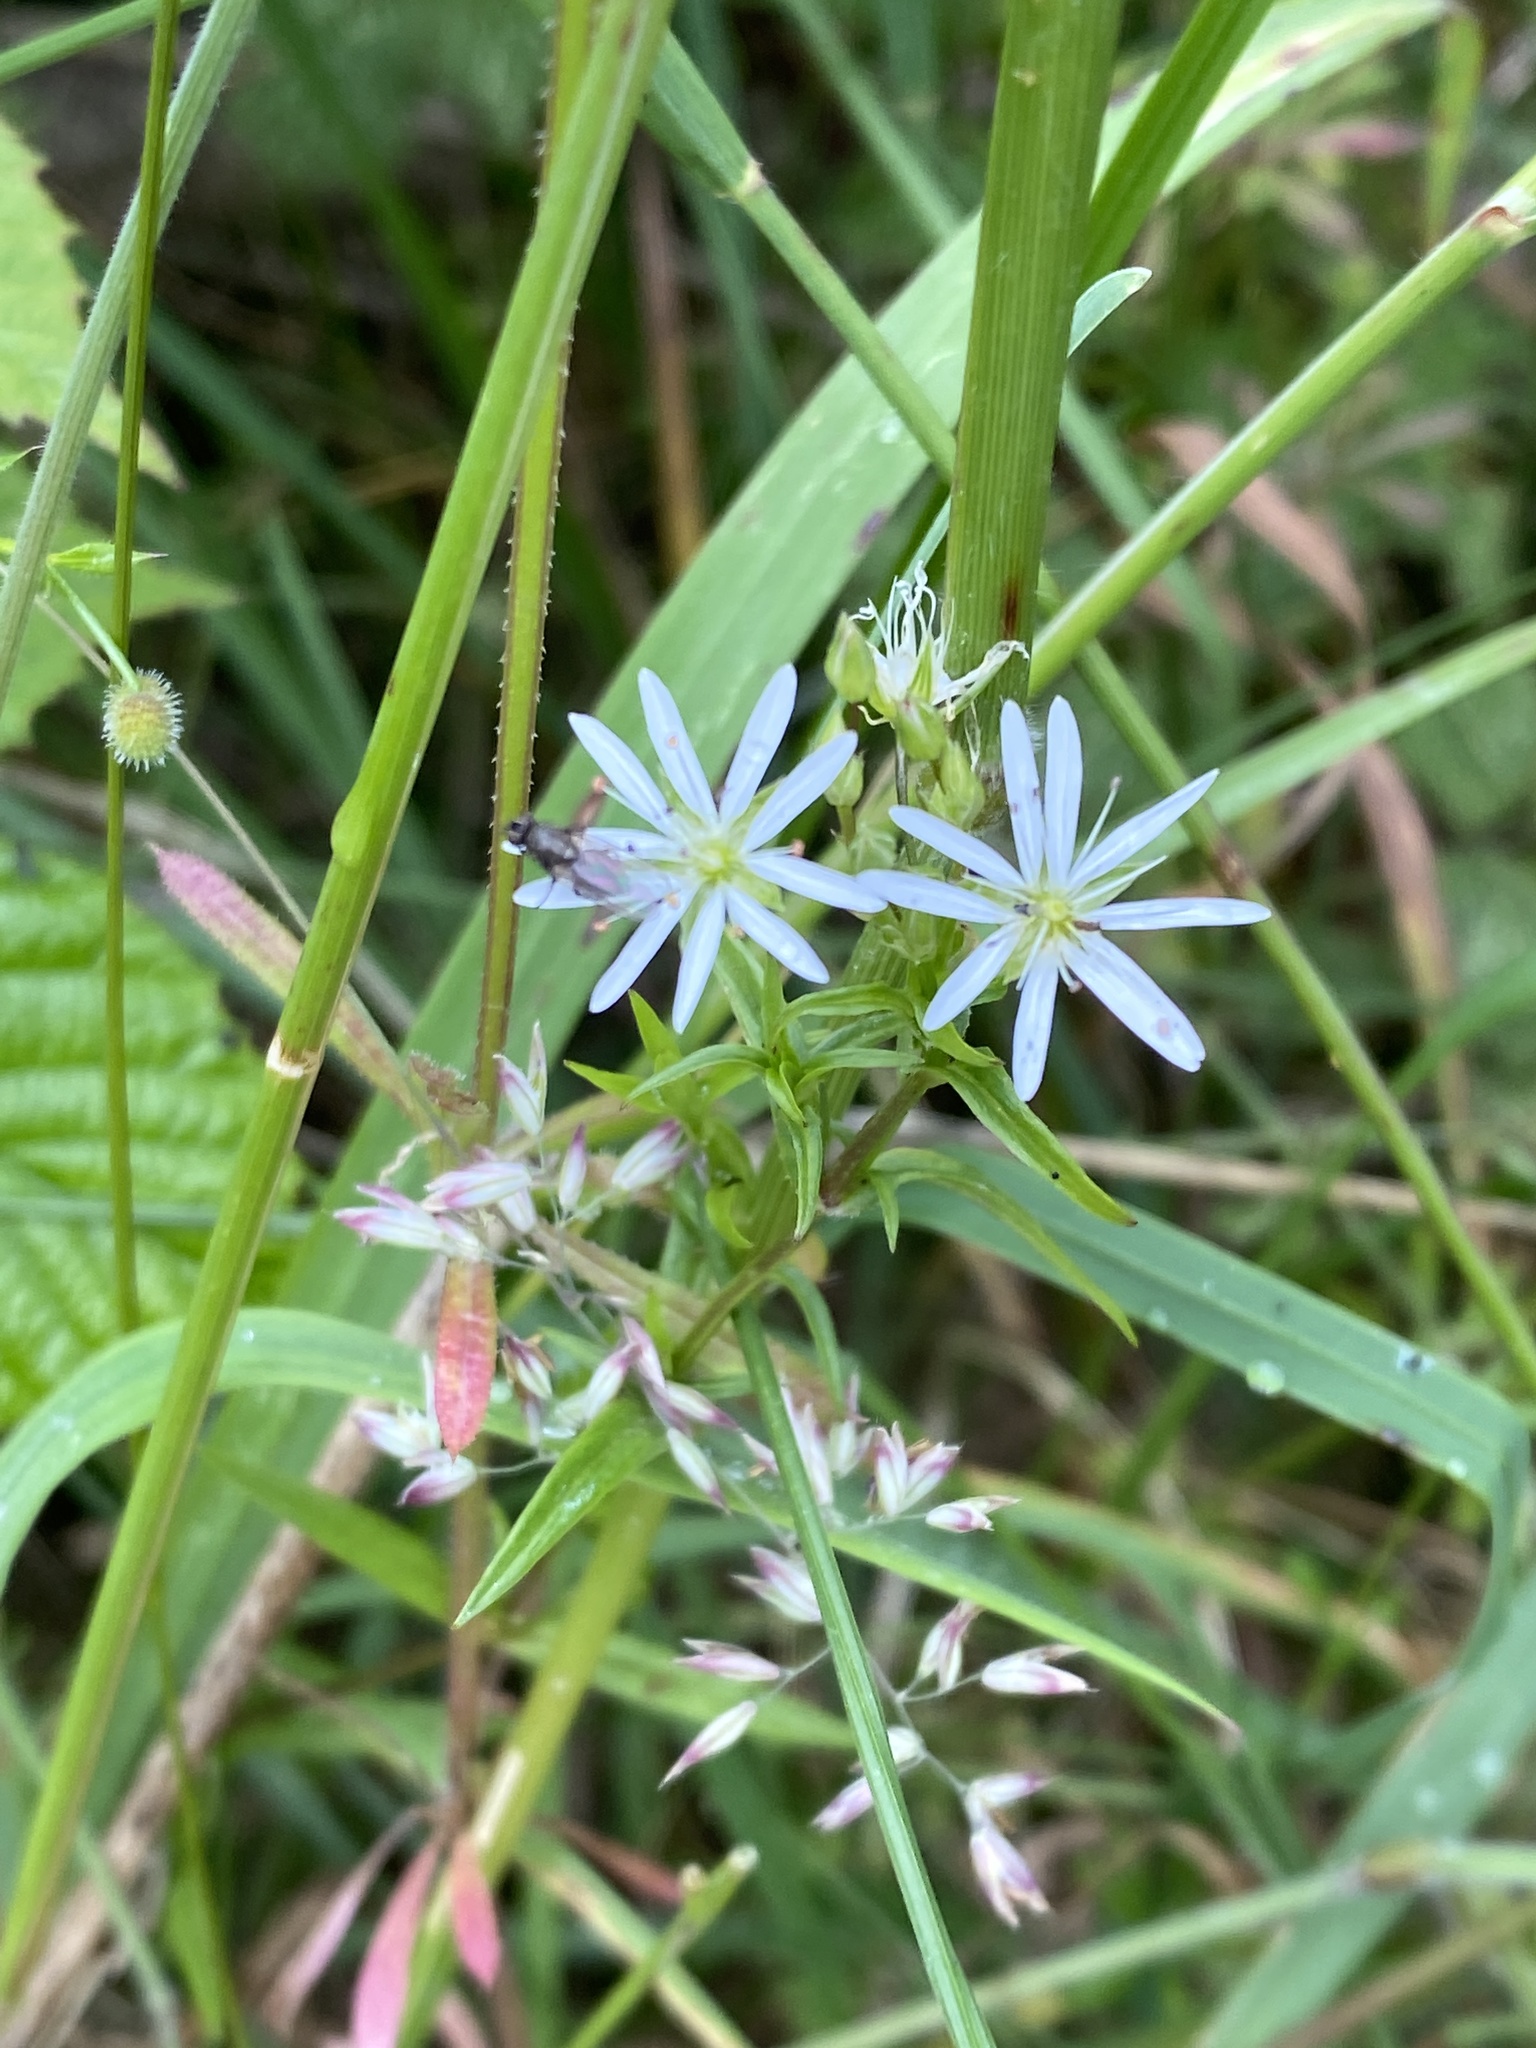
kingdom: Plantae
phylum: Tracheophyta
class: Magnoliopsida
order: Caryophyllales
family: Caryophyllaceae
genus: Stellaria
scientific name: Stellaria graminea
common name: Grass-like starwort
